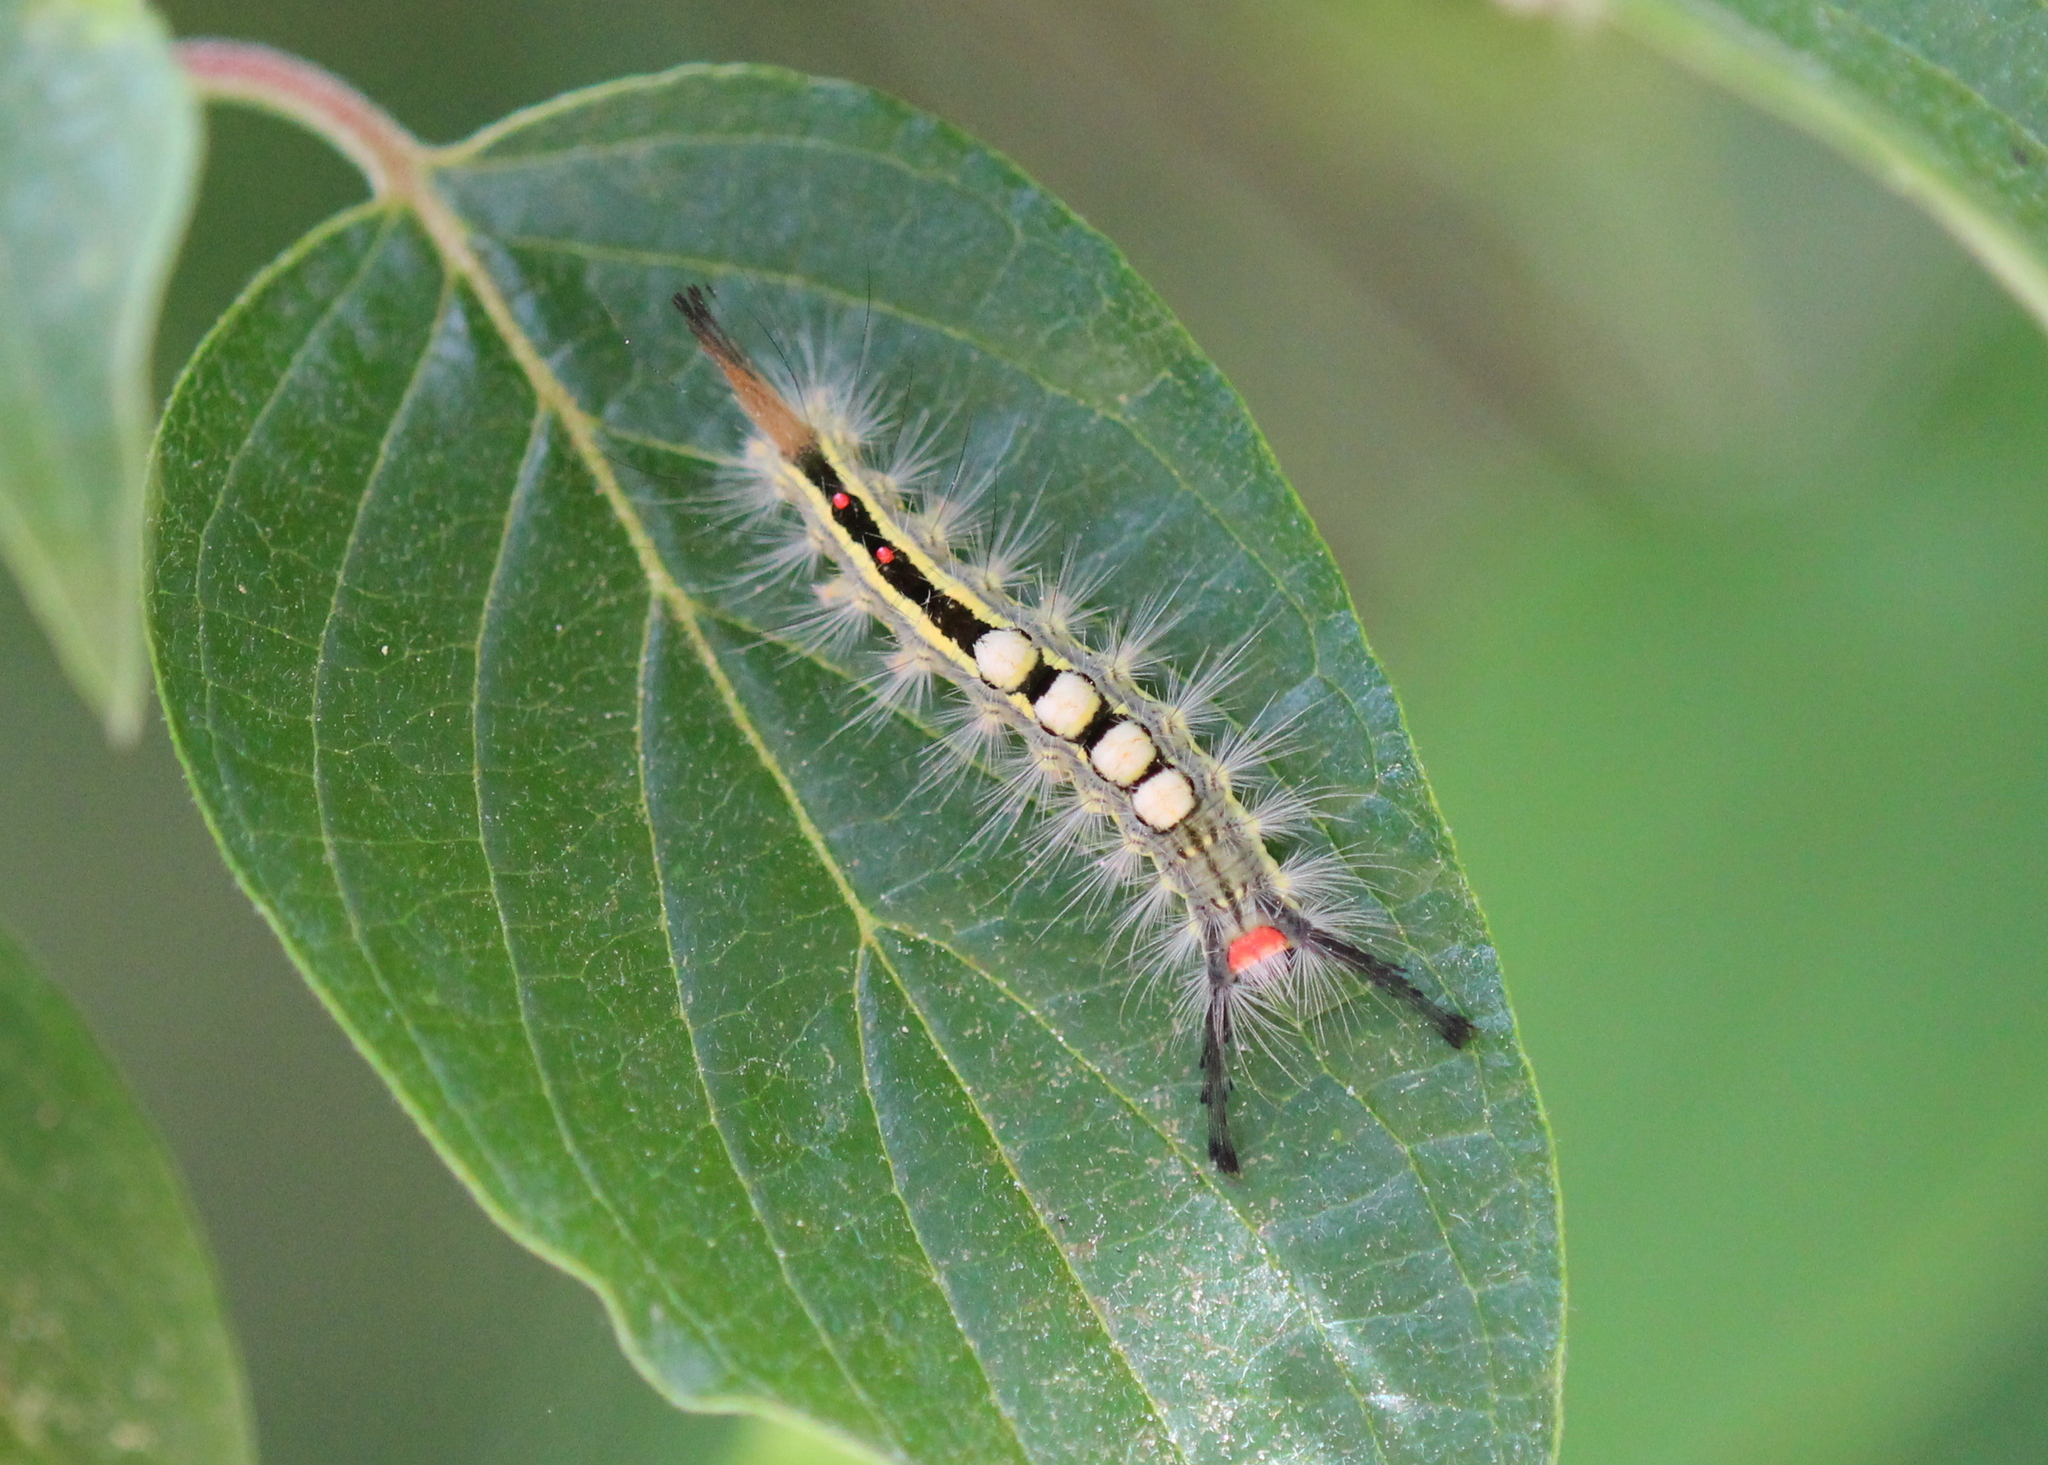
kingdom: Animalia
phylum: Arthropoda
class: Insecta
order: Lepidoptera
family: Erebidae
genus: Orgyia
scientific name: Orgyia leucostigma
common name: White-marked tussock moth
